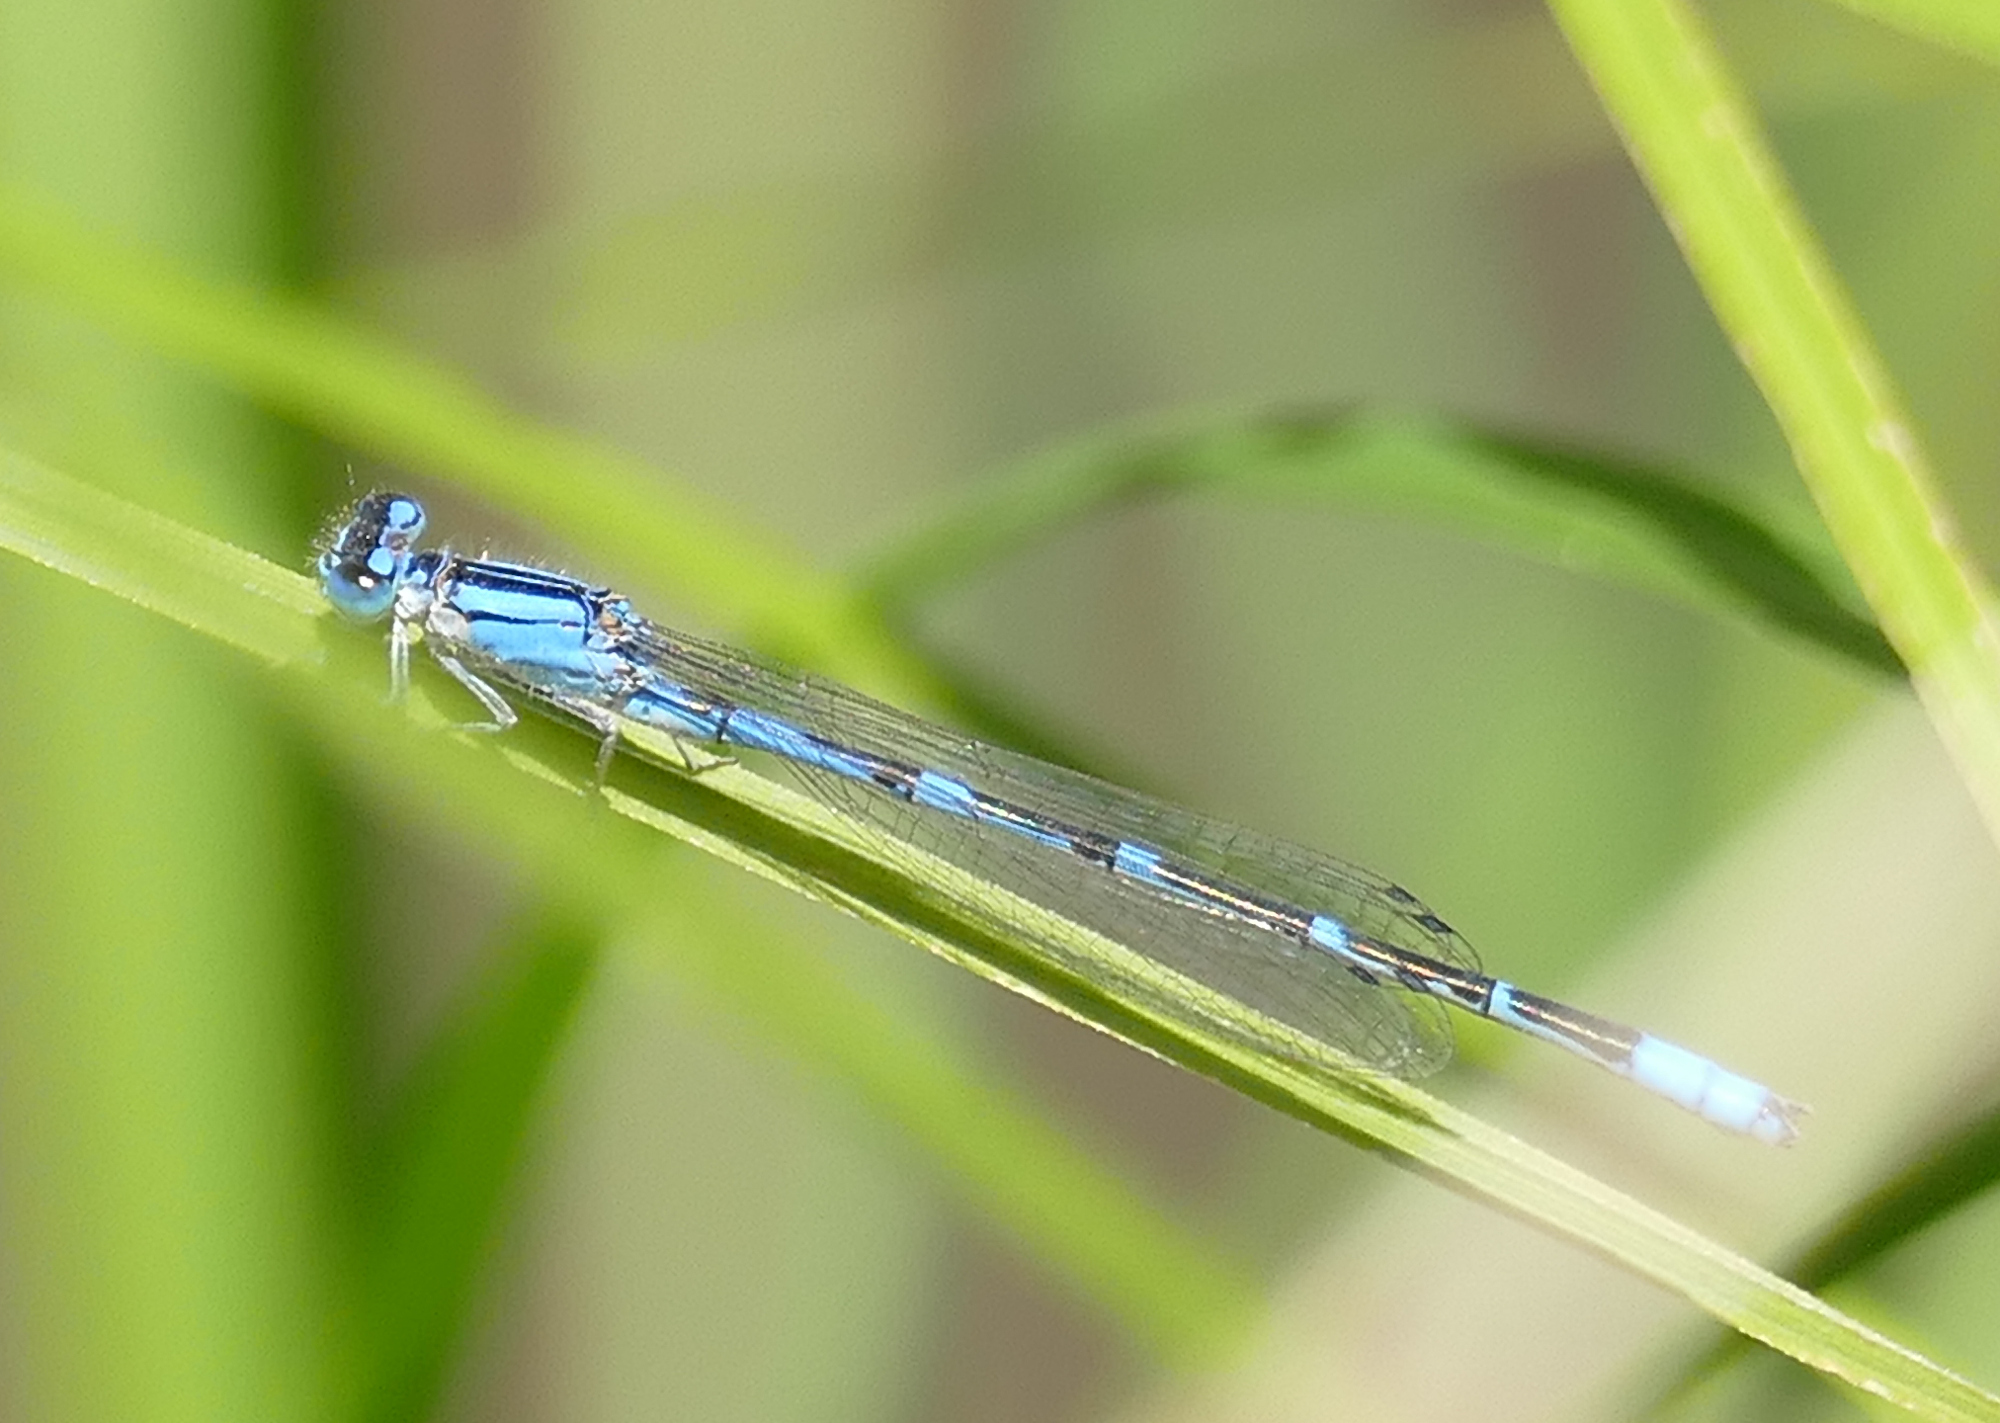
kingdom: Animalia
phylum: Arthropoda
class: Insecta
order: Odonata
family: Coenagrionidae
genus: Enallagma
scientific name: Enallagma praevarum
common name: Arroyo bluet
